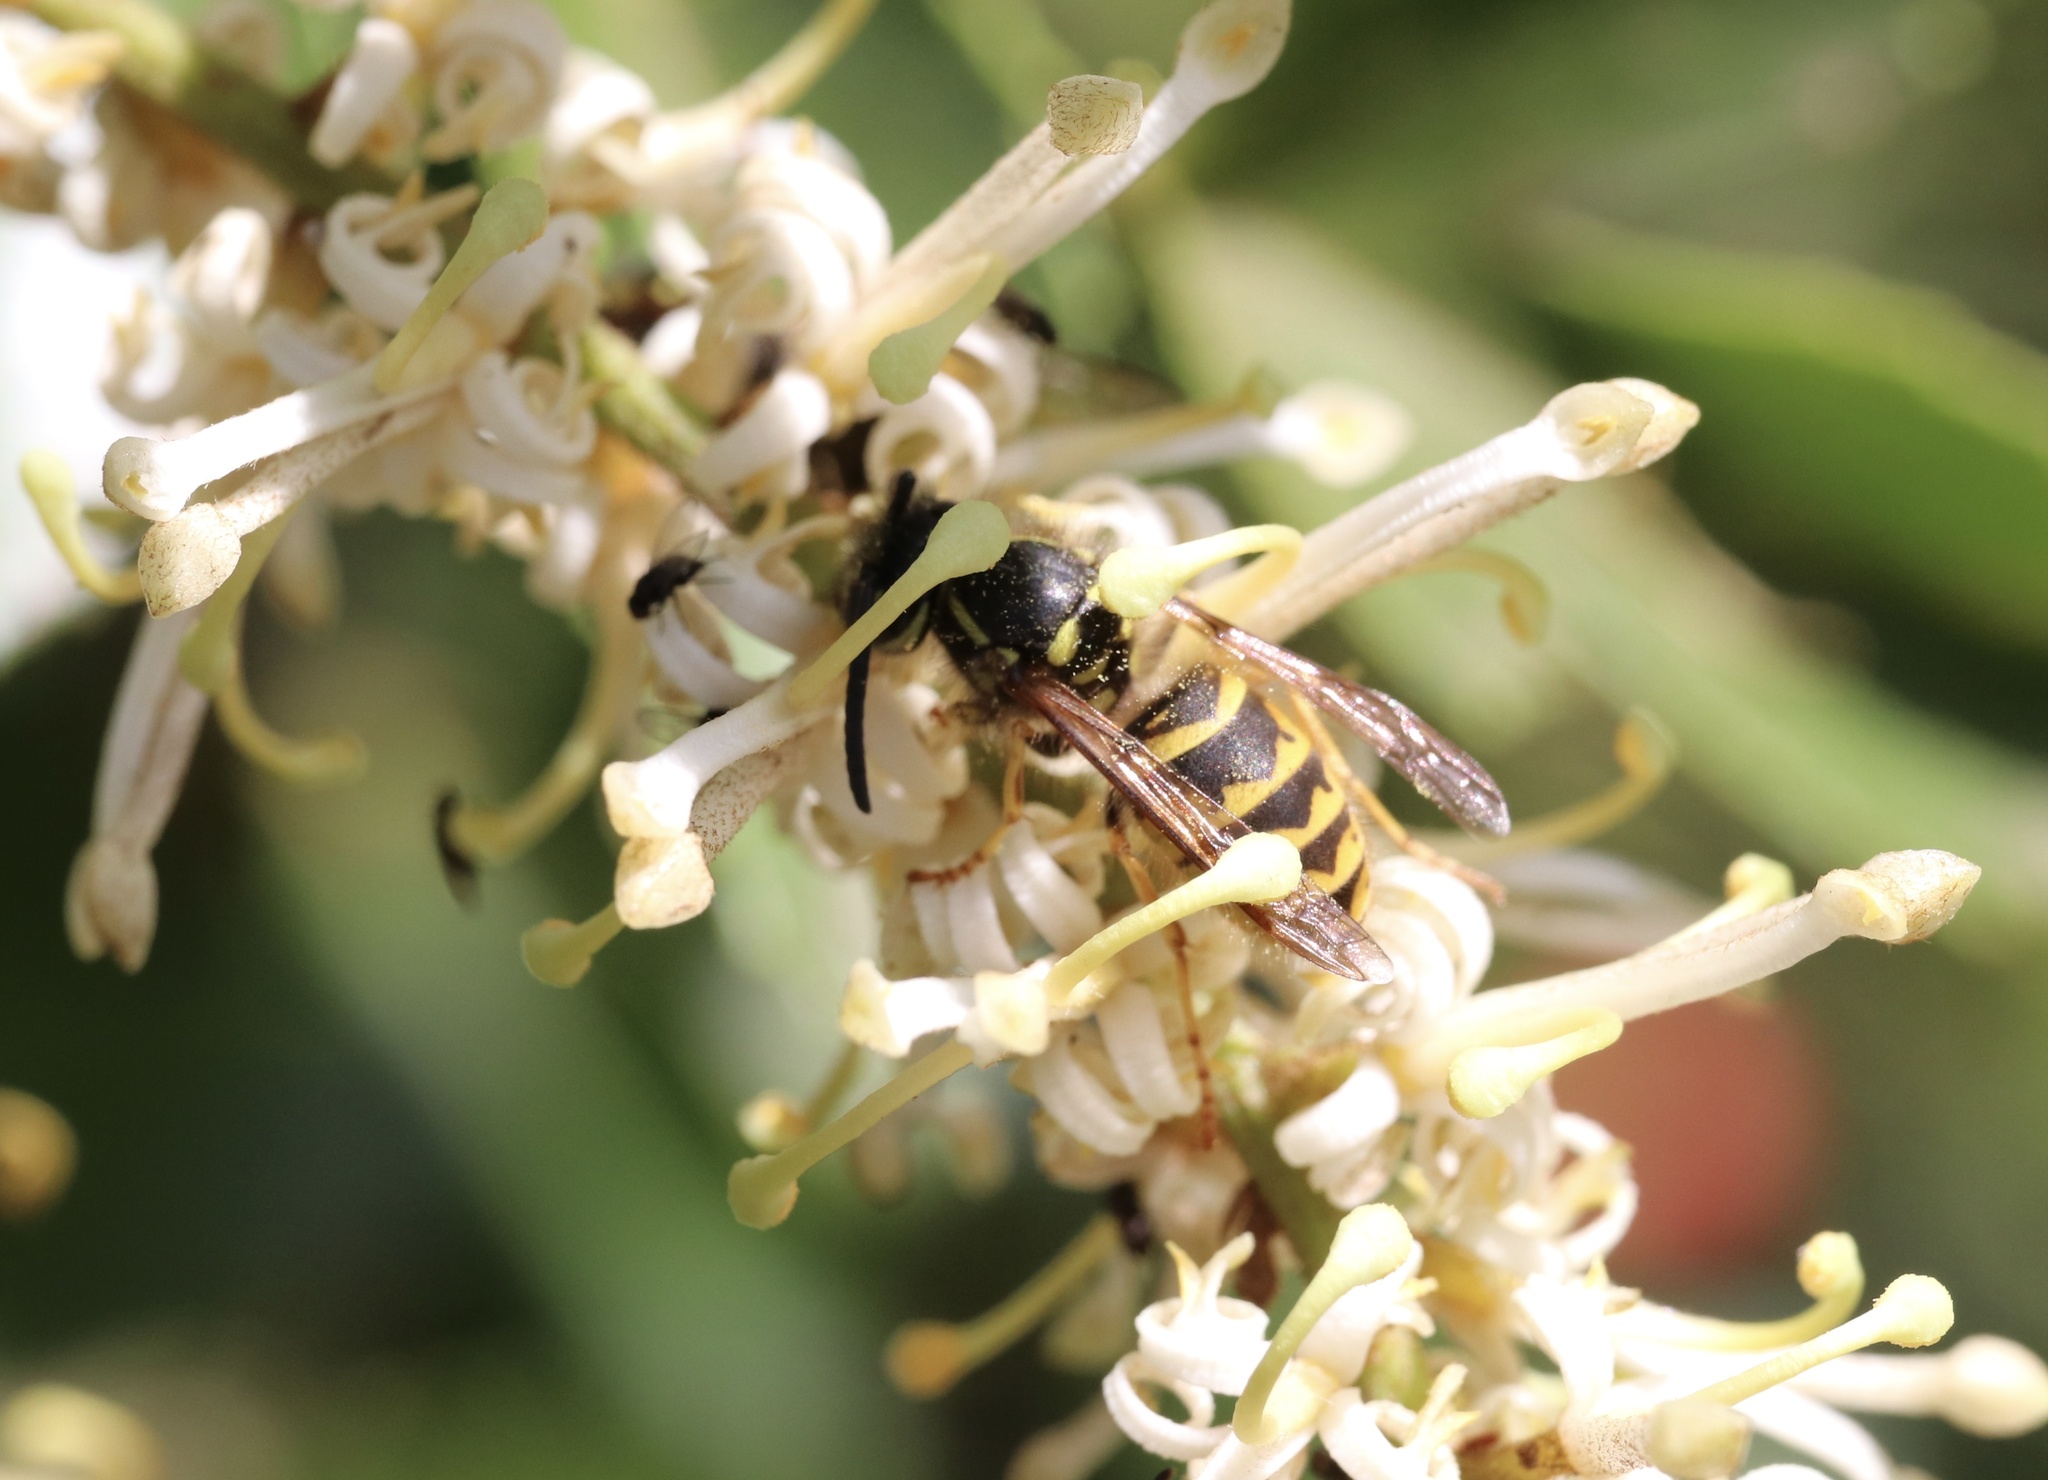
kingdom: Animalia
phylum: Arthropoda
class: Insecta
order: Hymenoptera
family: Vespidae
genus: Vespula
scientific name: Vespula vulgaris
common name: Common wasp
